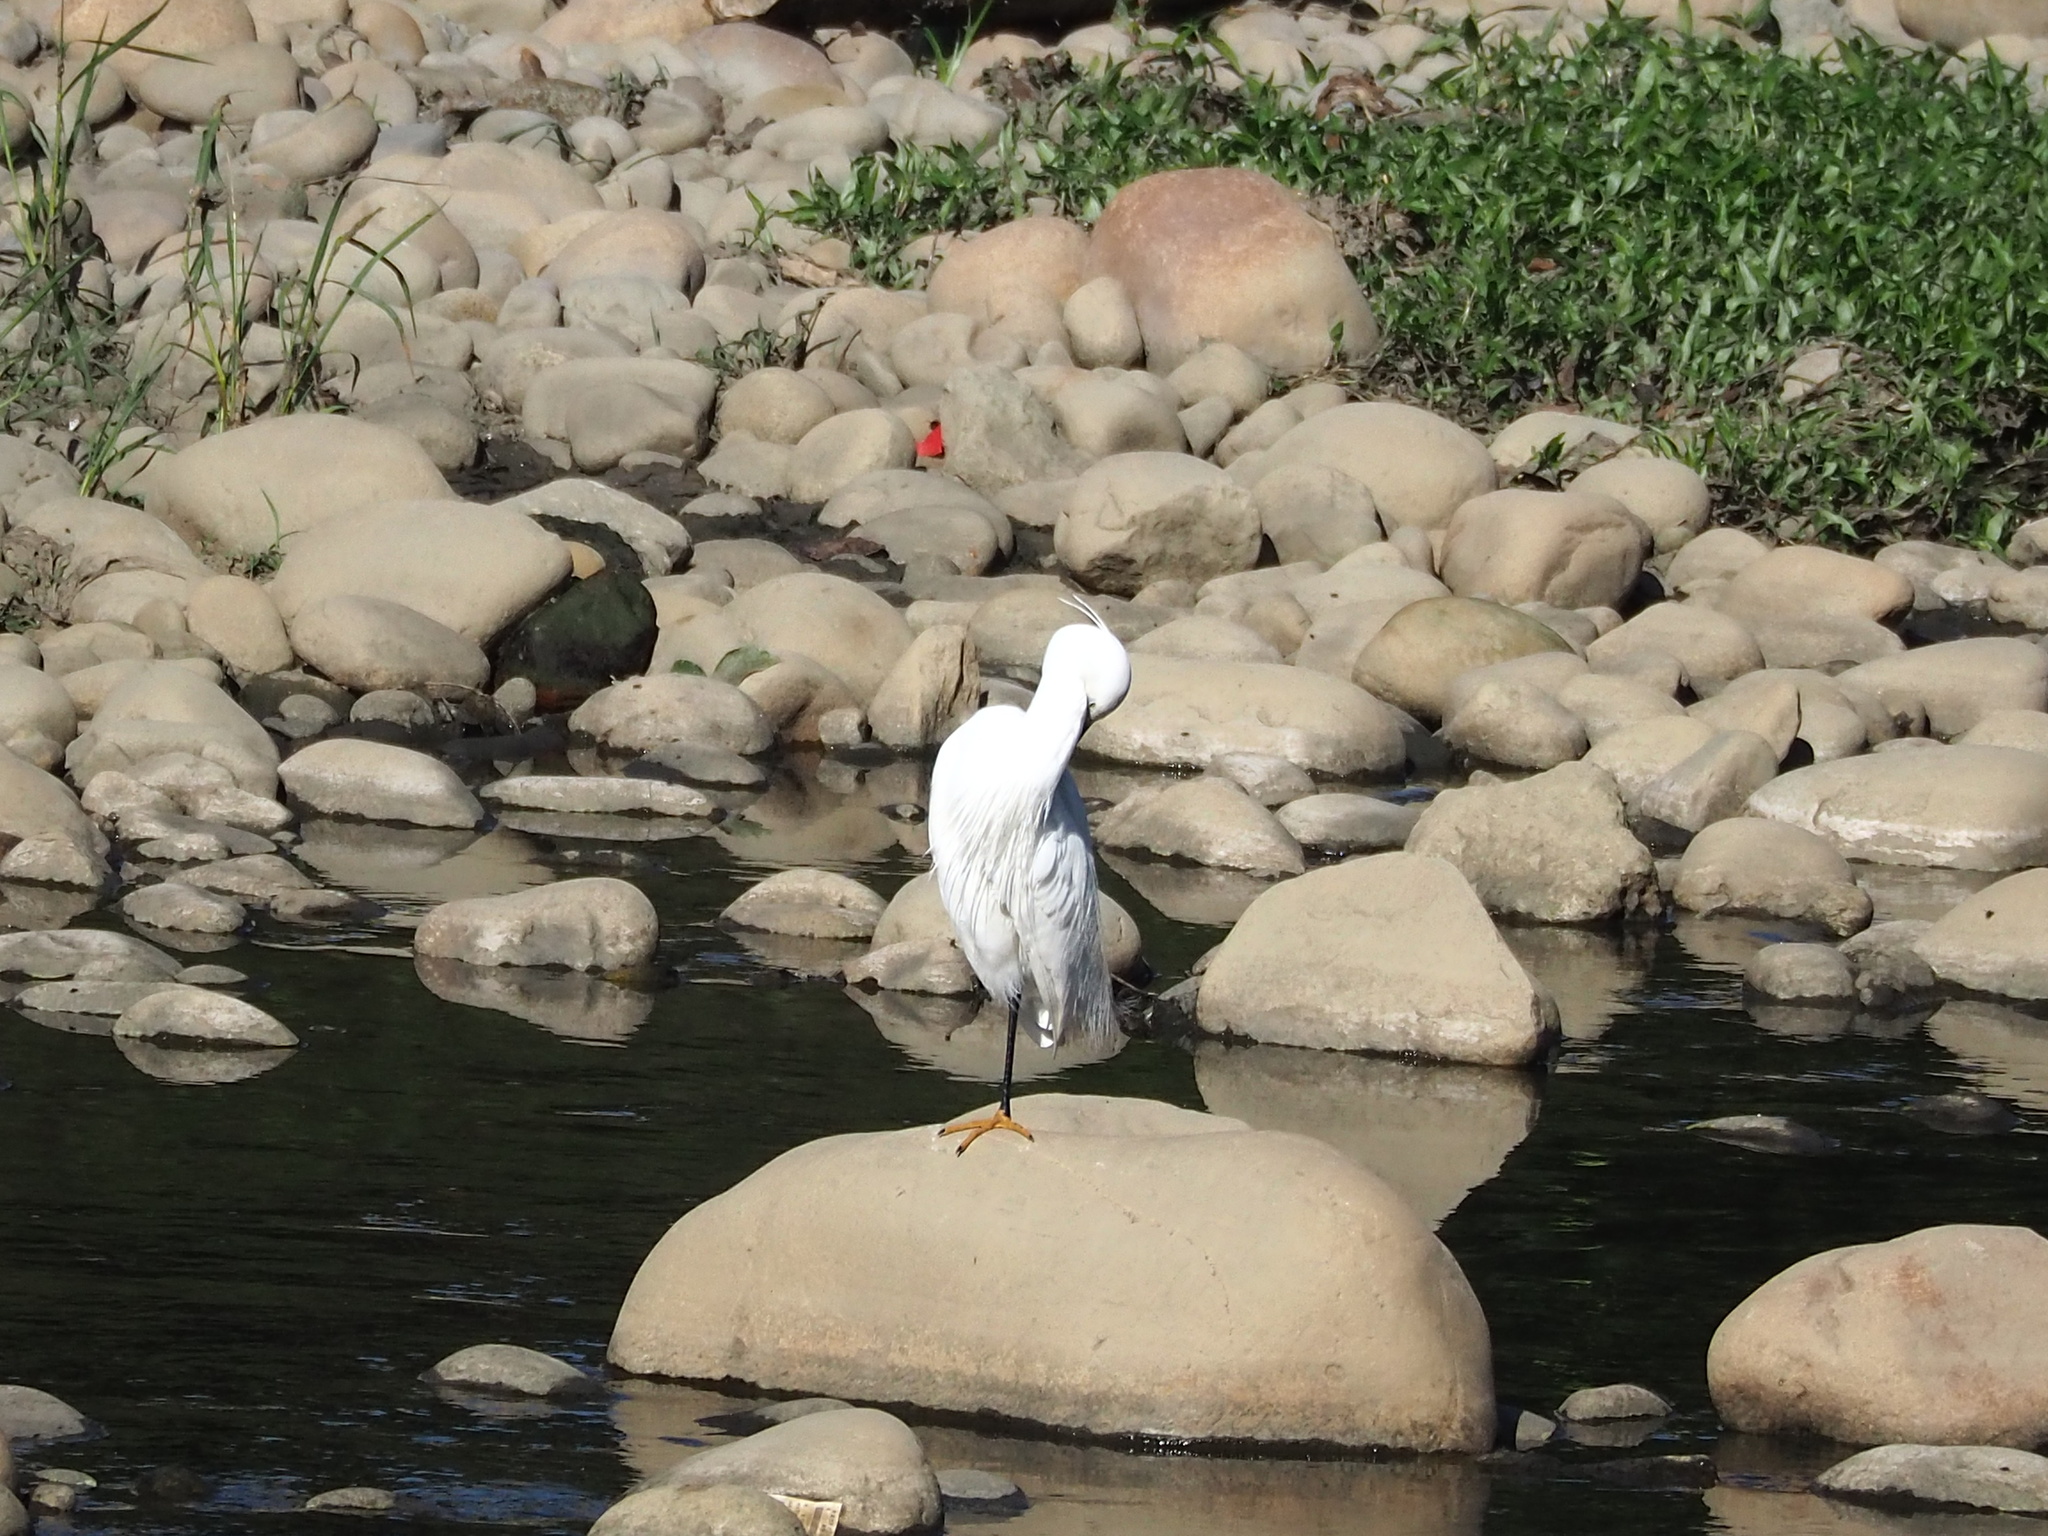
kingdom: Animalia
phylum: Chordata
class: Aves
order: Pelecaniformes
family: Ardeidae
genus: Egretta
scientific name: Egretta garzetta
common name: Little egret
